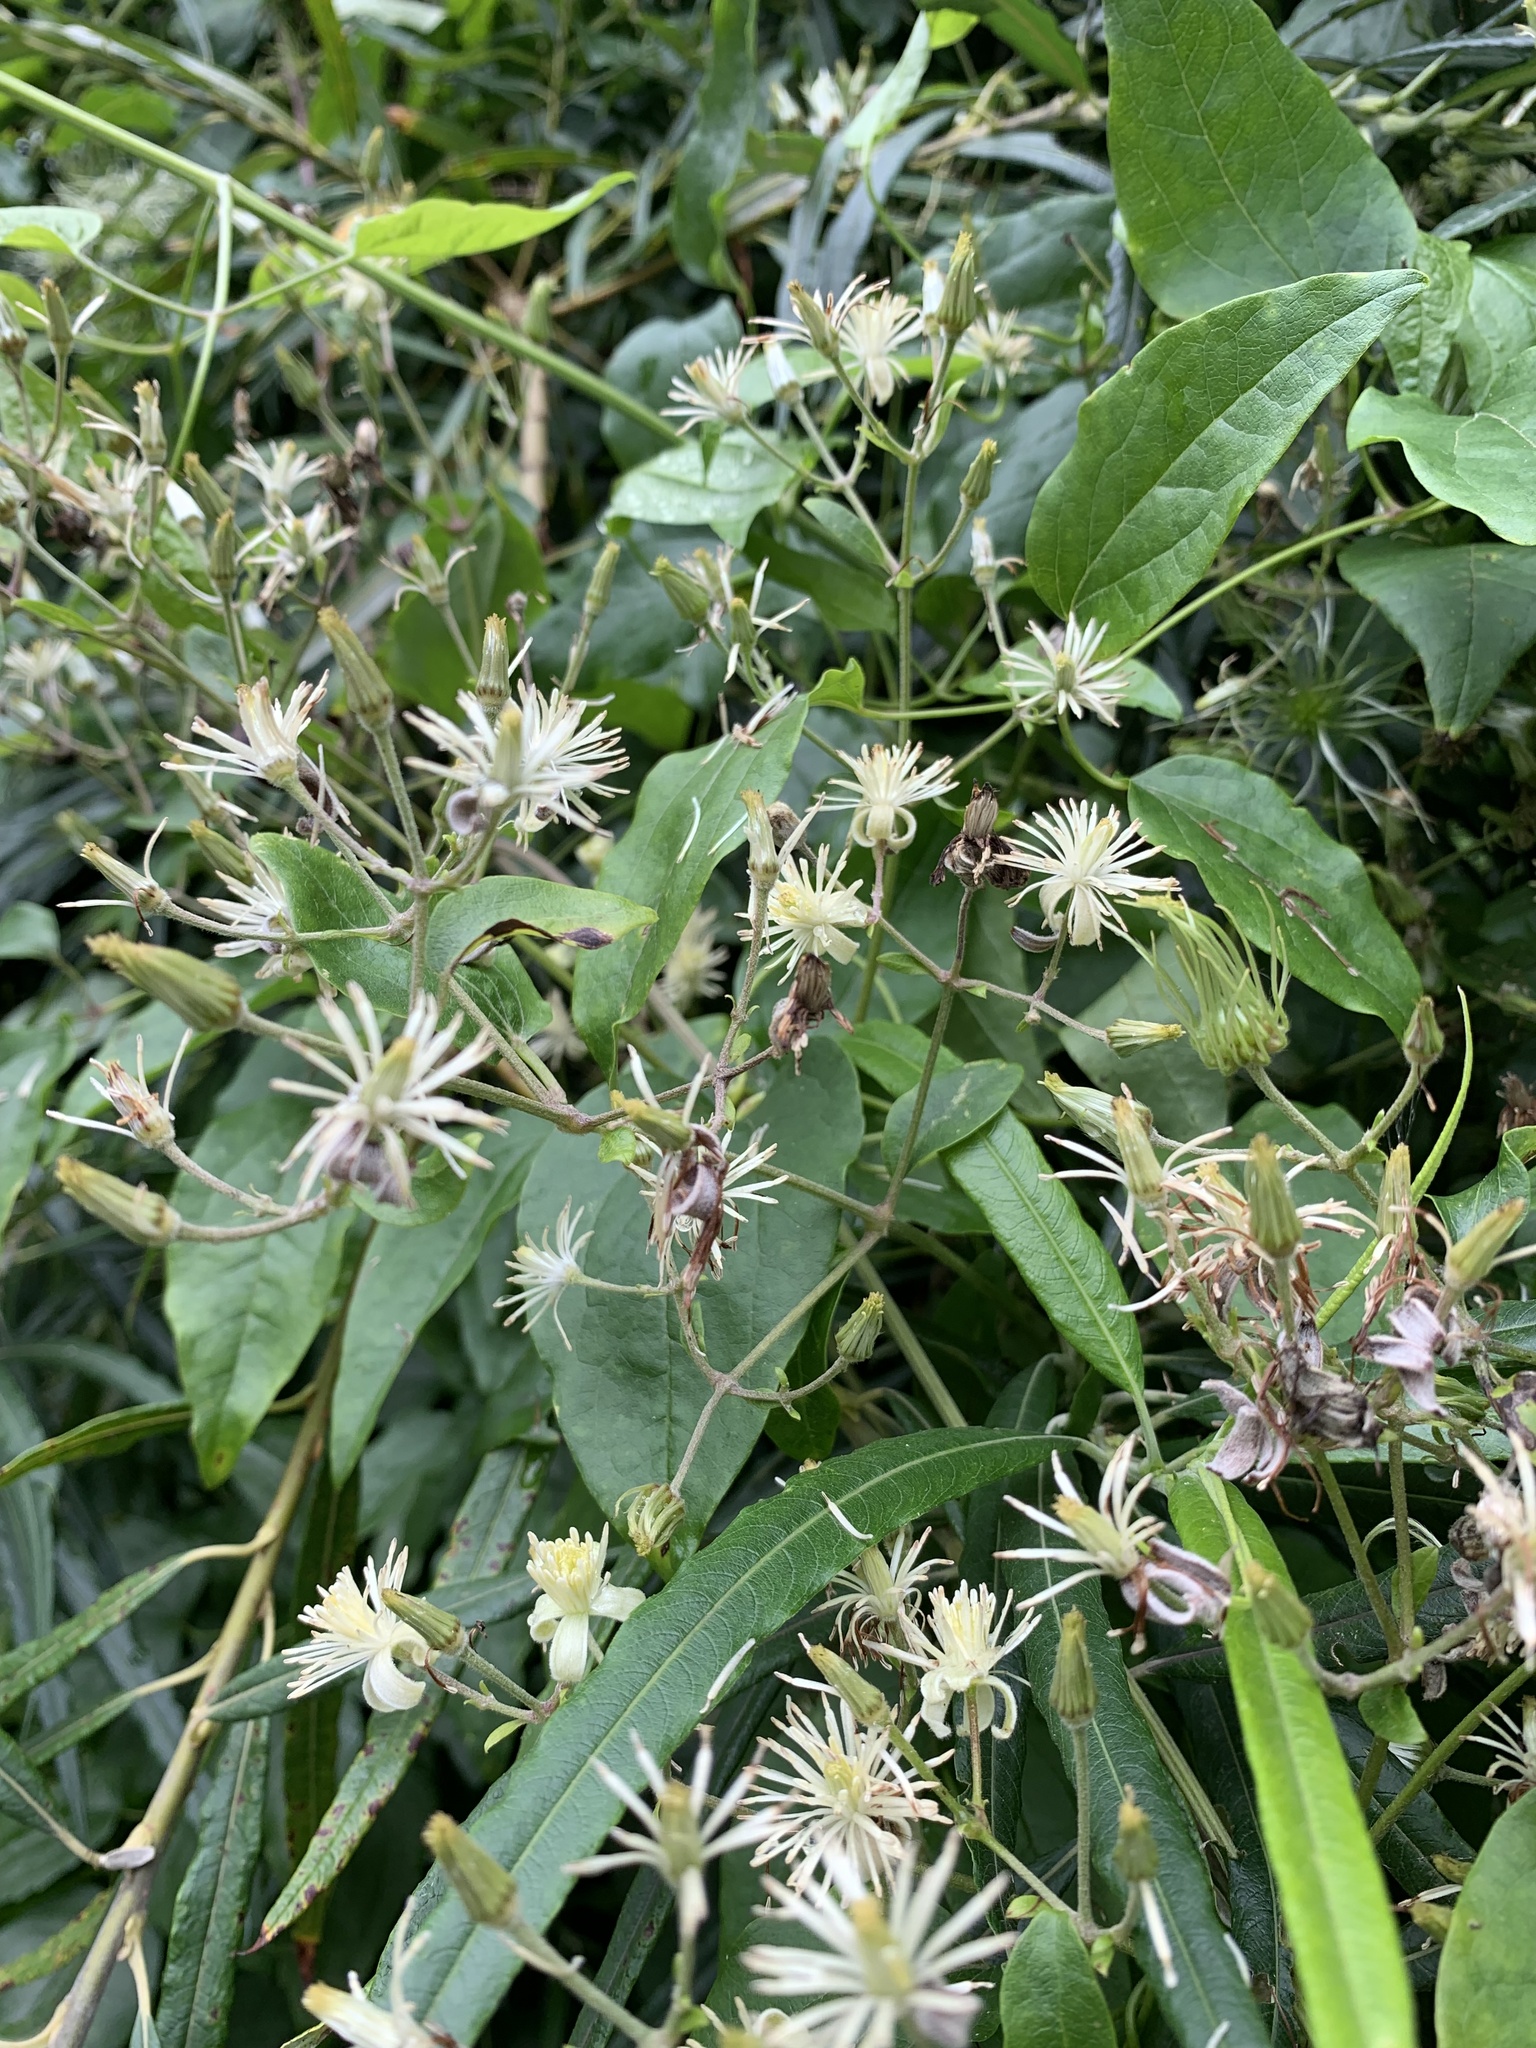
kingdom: Plantae
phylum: Tracheophyta
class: Magnoliopsida
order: Ranunculales
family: Ranunculaceae
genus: Clematis
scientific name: Clematis vitalba
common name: Evergreen clematis
